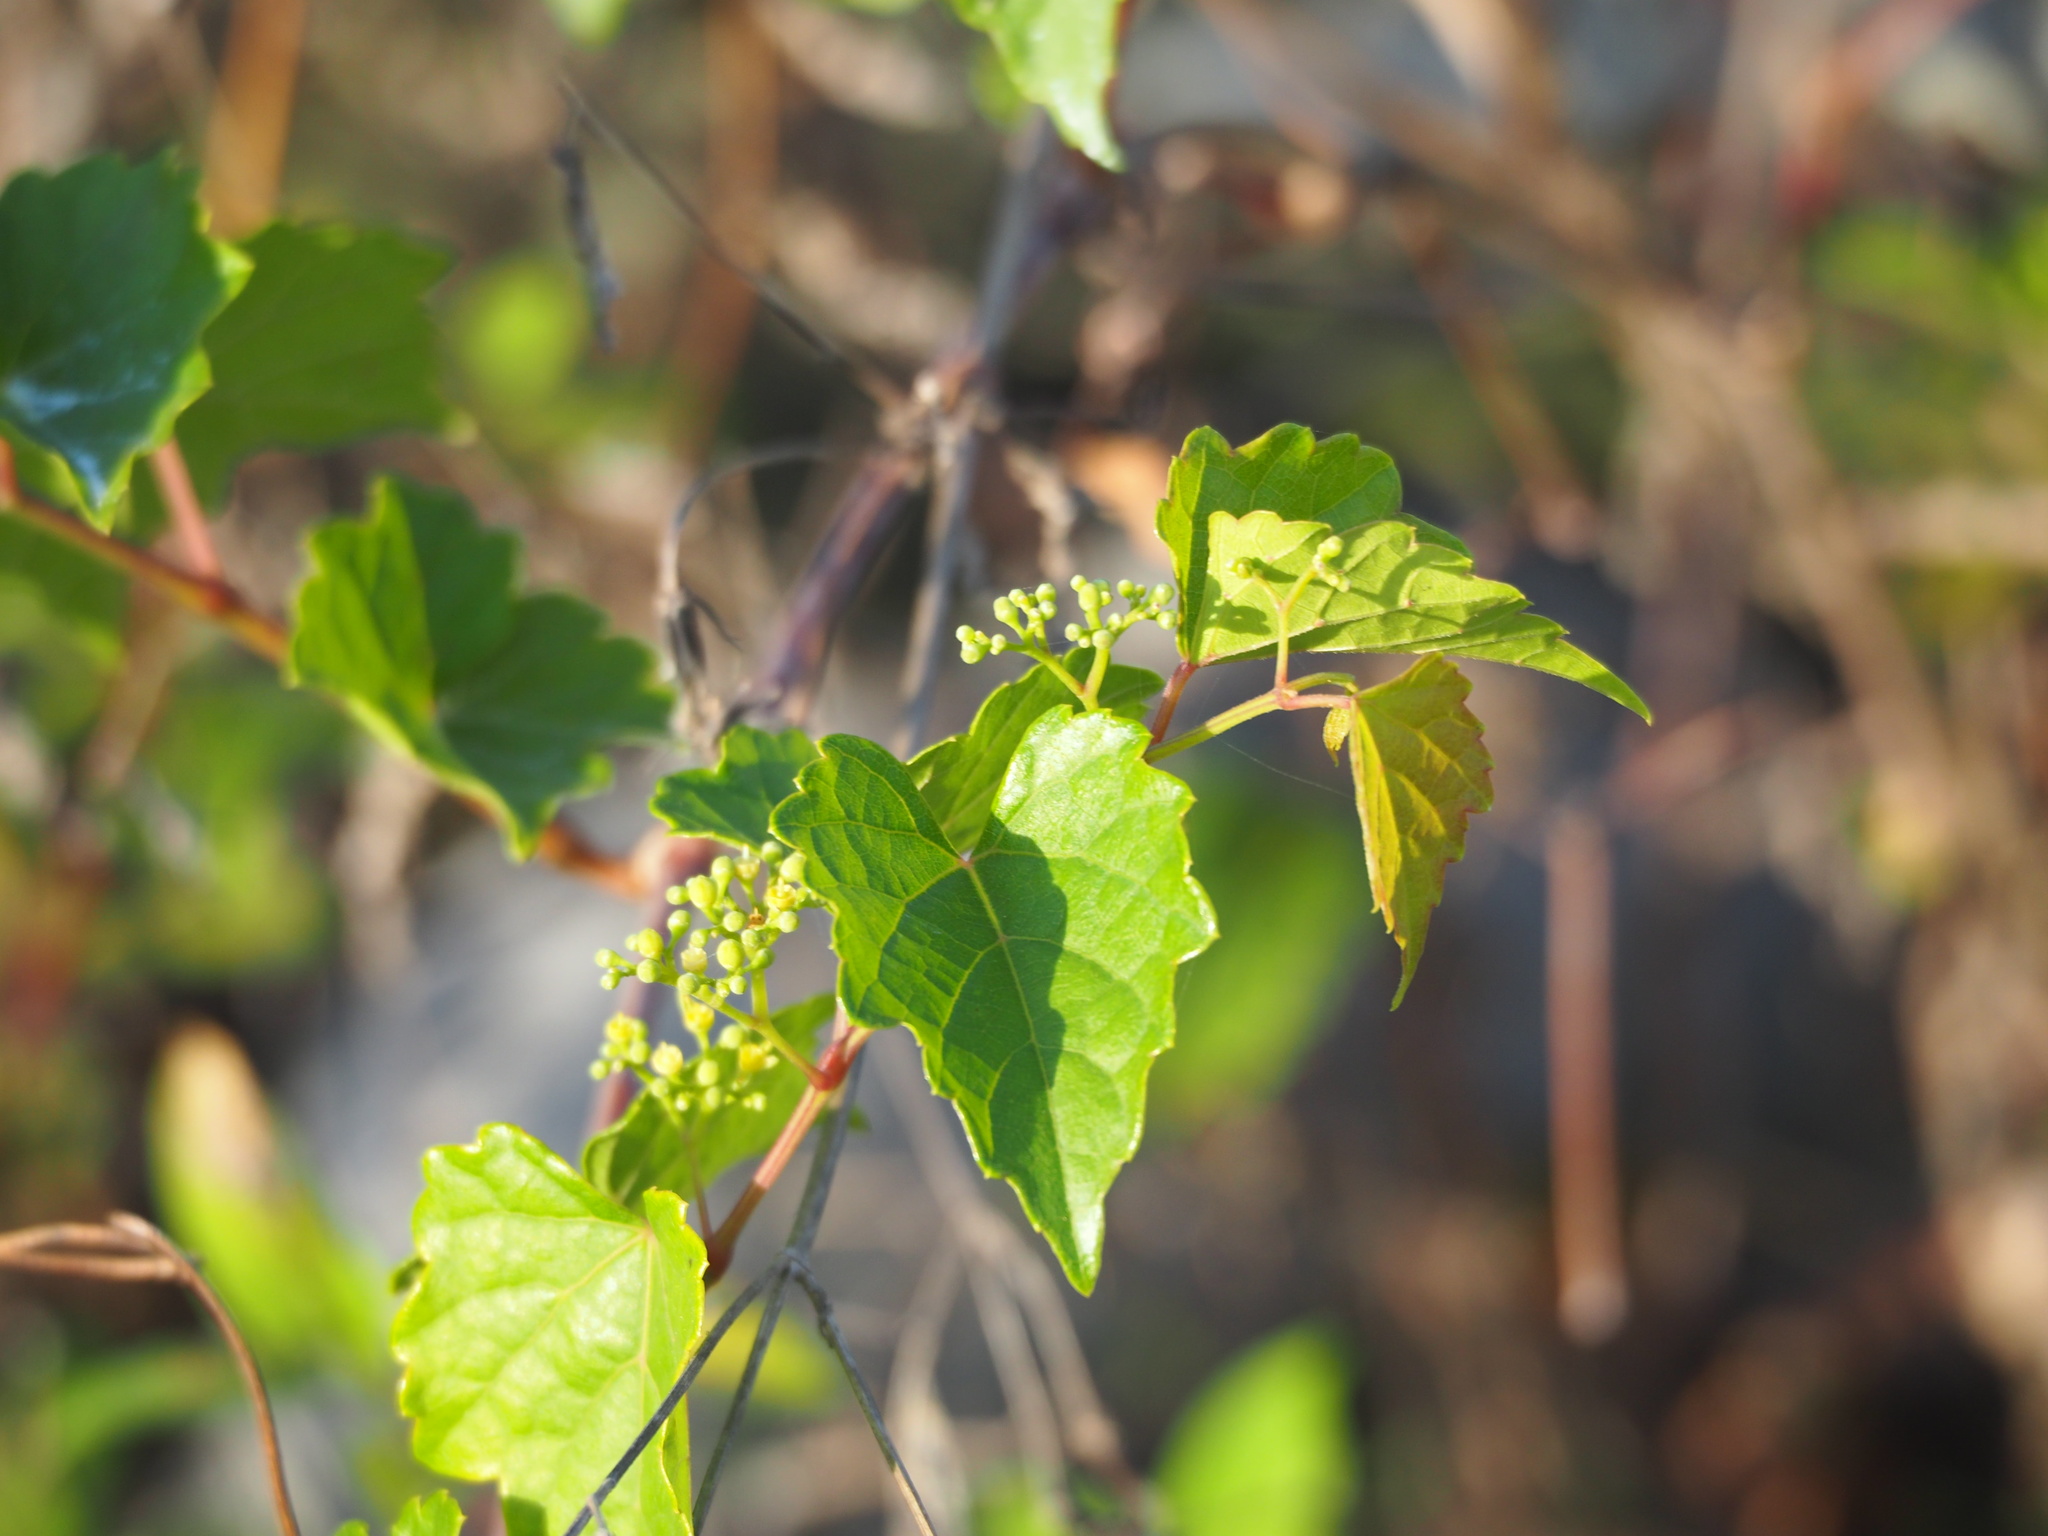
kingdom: Plantae
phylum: Tracheophyta
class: Magnoliopsida
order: Vitales
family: Vitaceae
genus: Ampelopsis
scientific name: Ampelopsis glandulosa
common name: Amur peppervine
